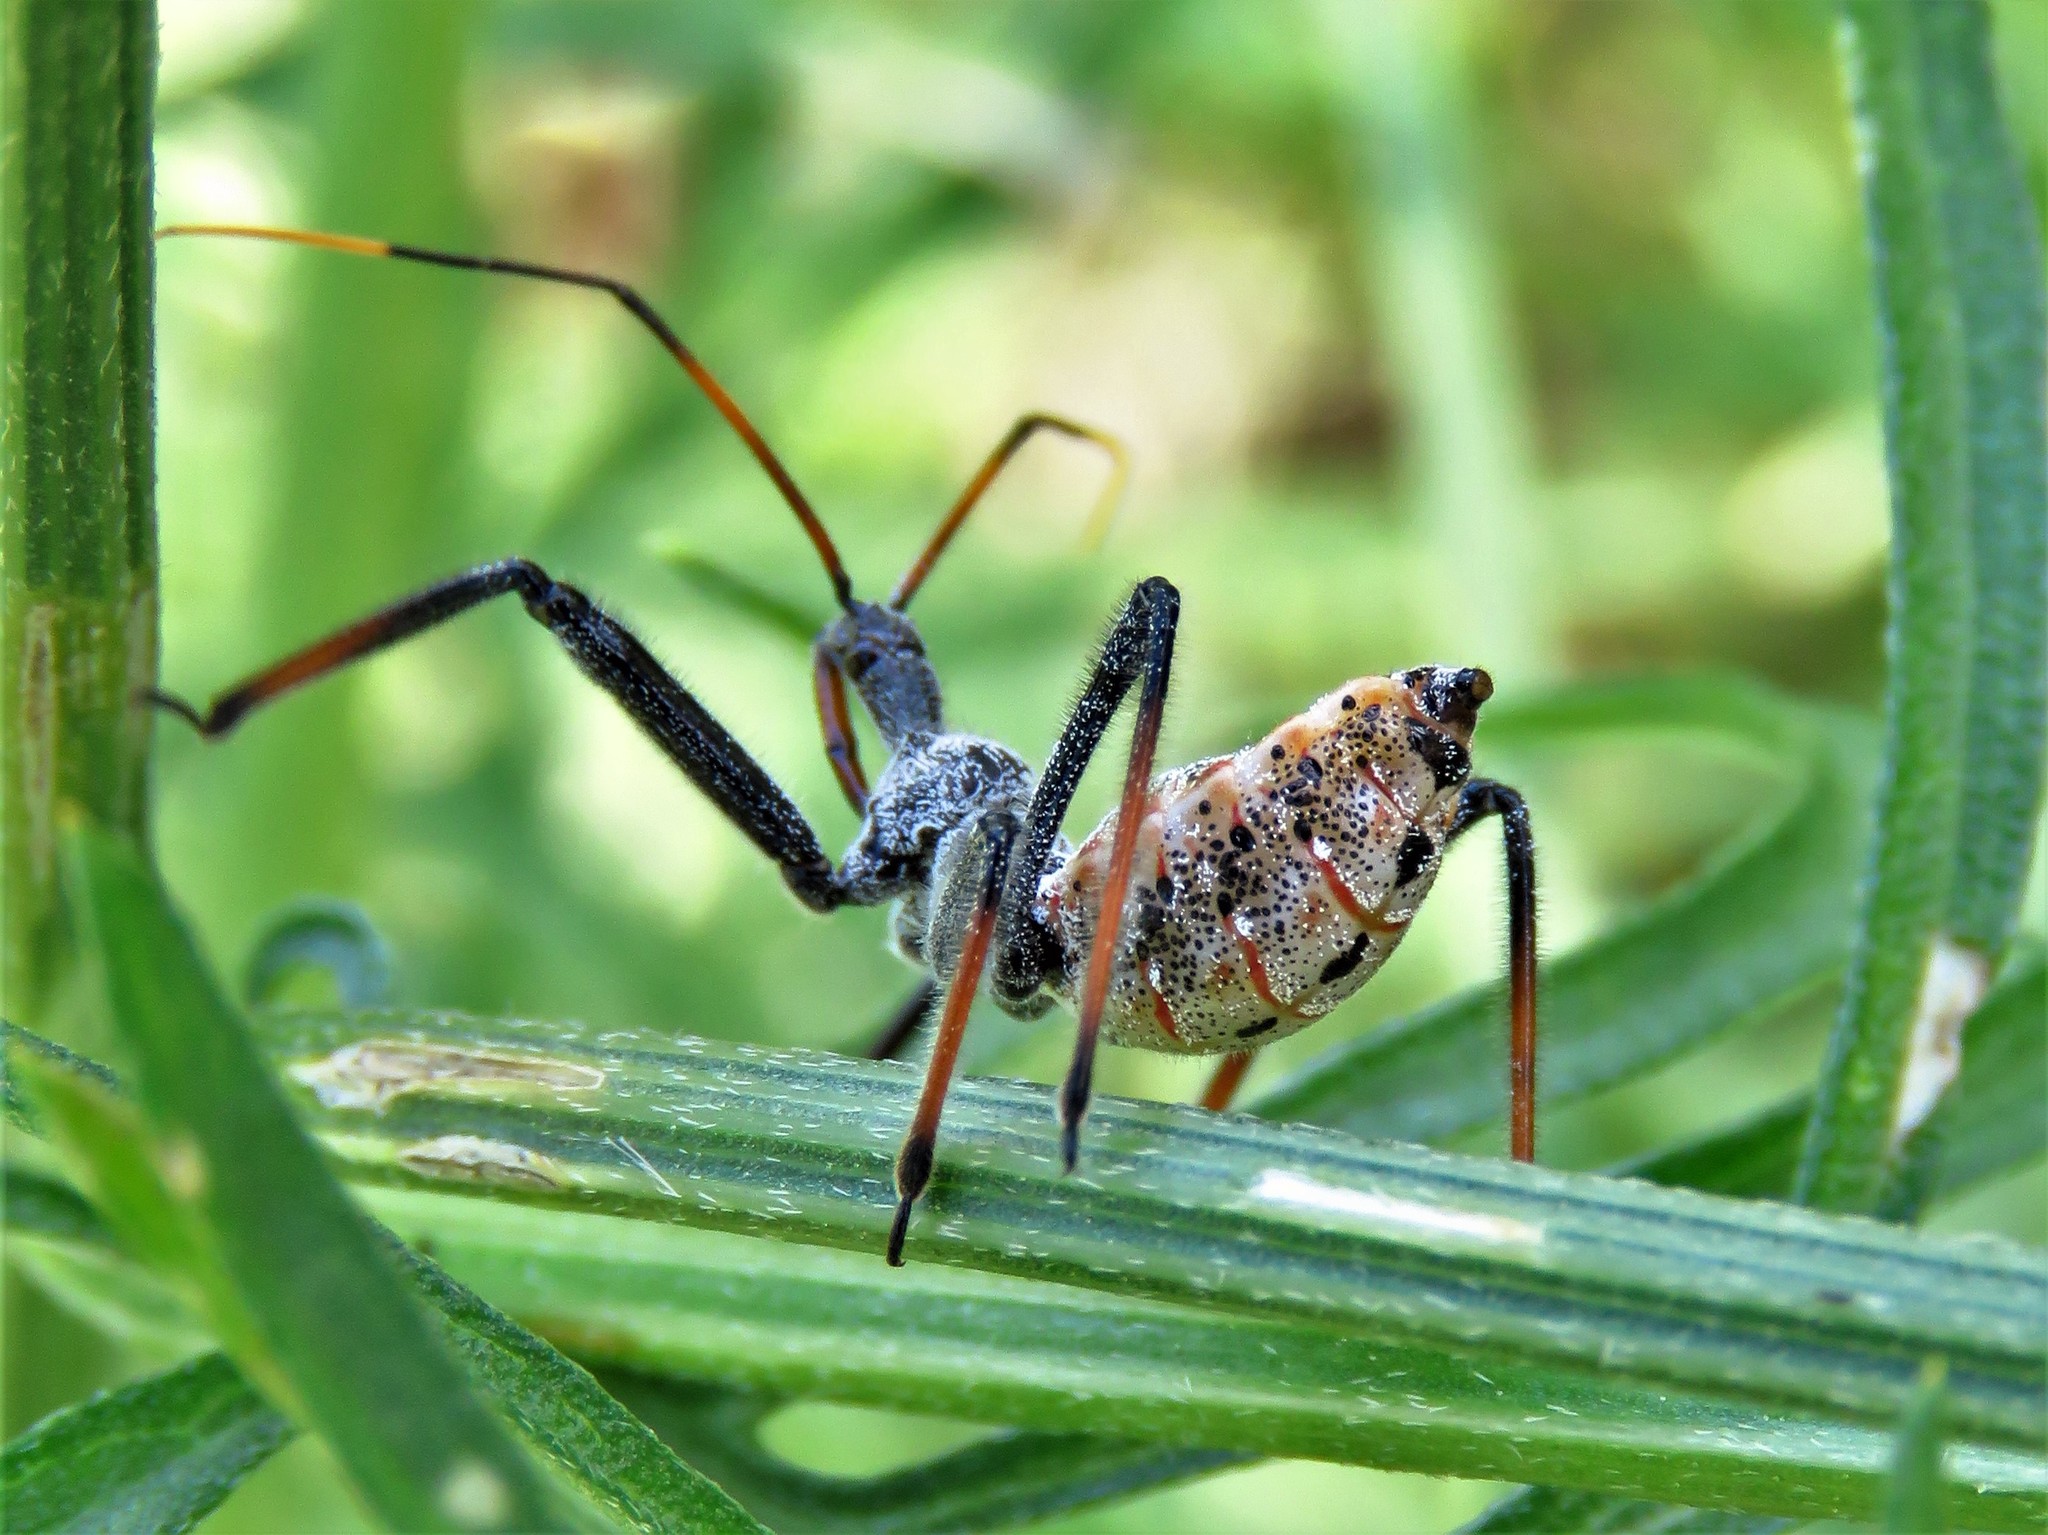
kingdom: Animalia
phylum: Arthropoda
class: Insecta
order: Hemiptera
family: Reduviidae
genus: Arilus
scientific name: Arilus cristatus
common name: North american wheel bug
